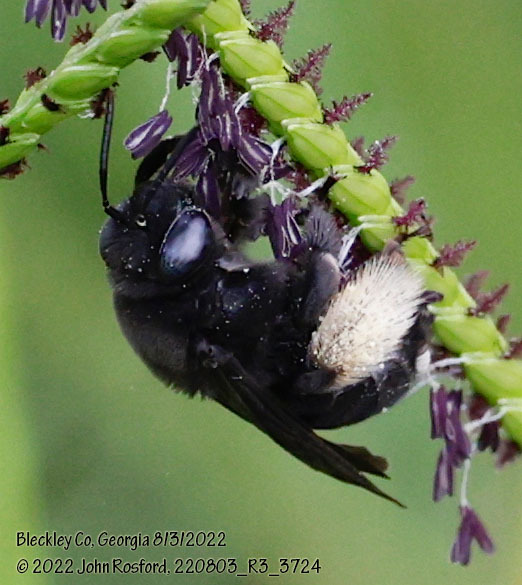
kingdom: Animalia
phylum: Arthropoda
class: Insecta
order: Hymenoptera
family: Apidae
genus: Melissodes
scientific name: Melissodes bimaculatus
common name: Two-spotted long-horned bee
